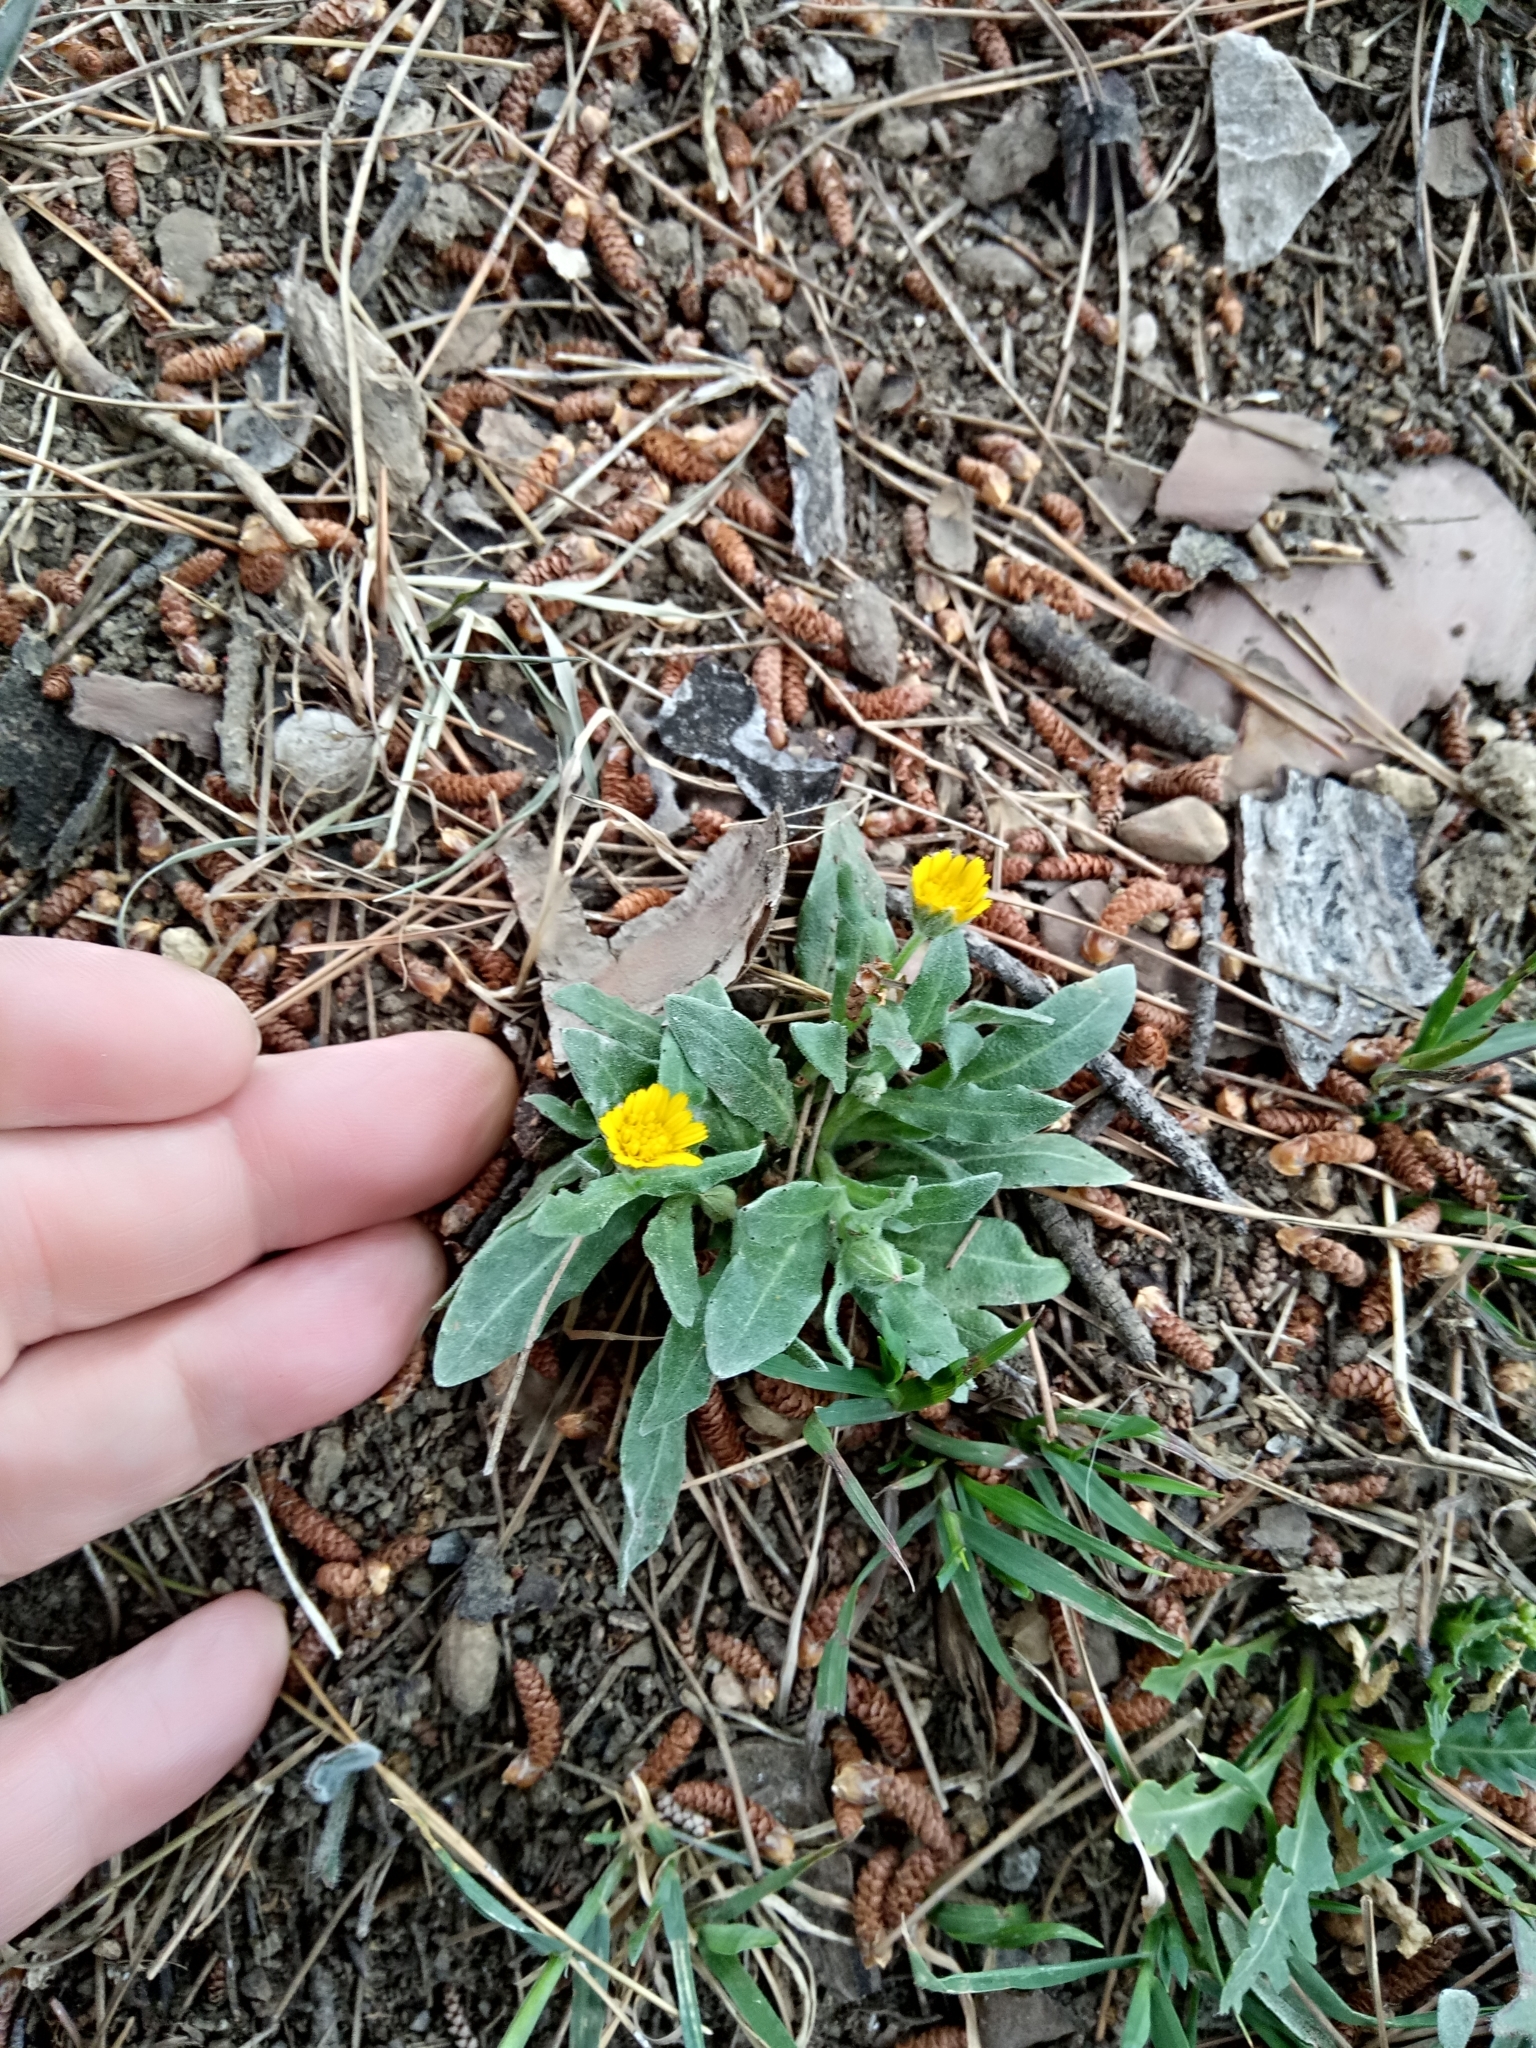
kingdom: Plantae
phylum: Tracheophyta
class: Magnoliopsida
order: Asterales
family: Asteraceae
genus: Calendula
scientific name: Calendula arvensis
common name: Field marigold
